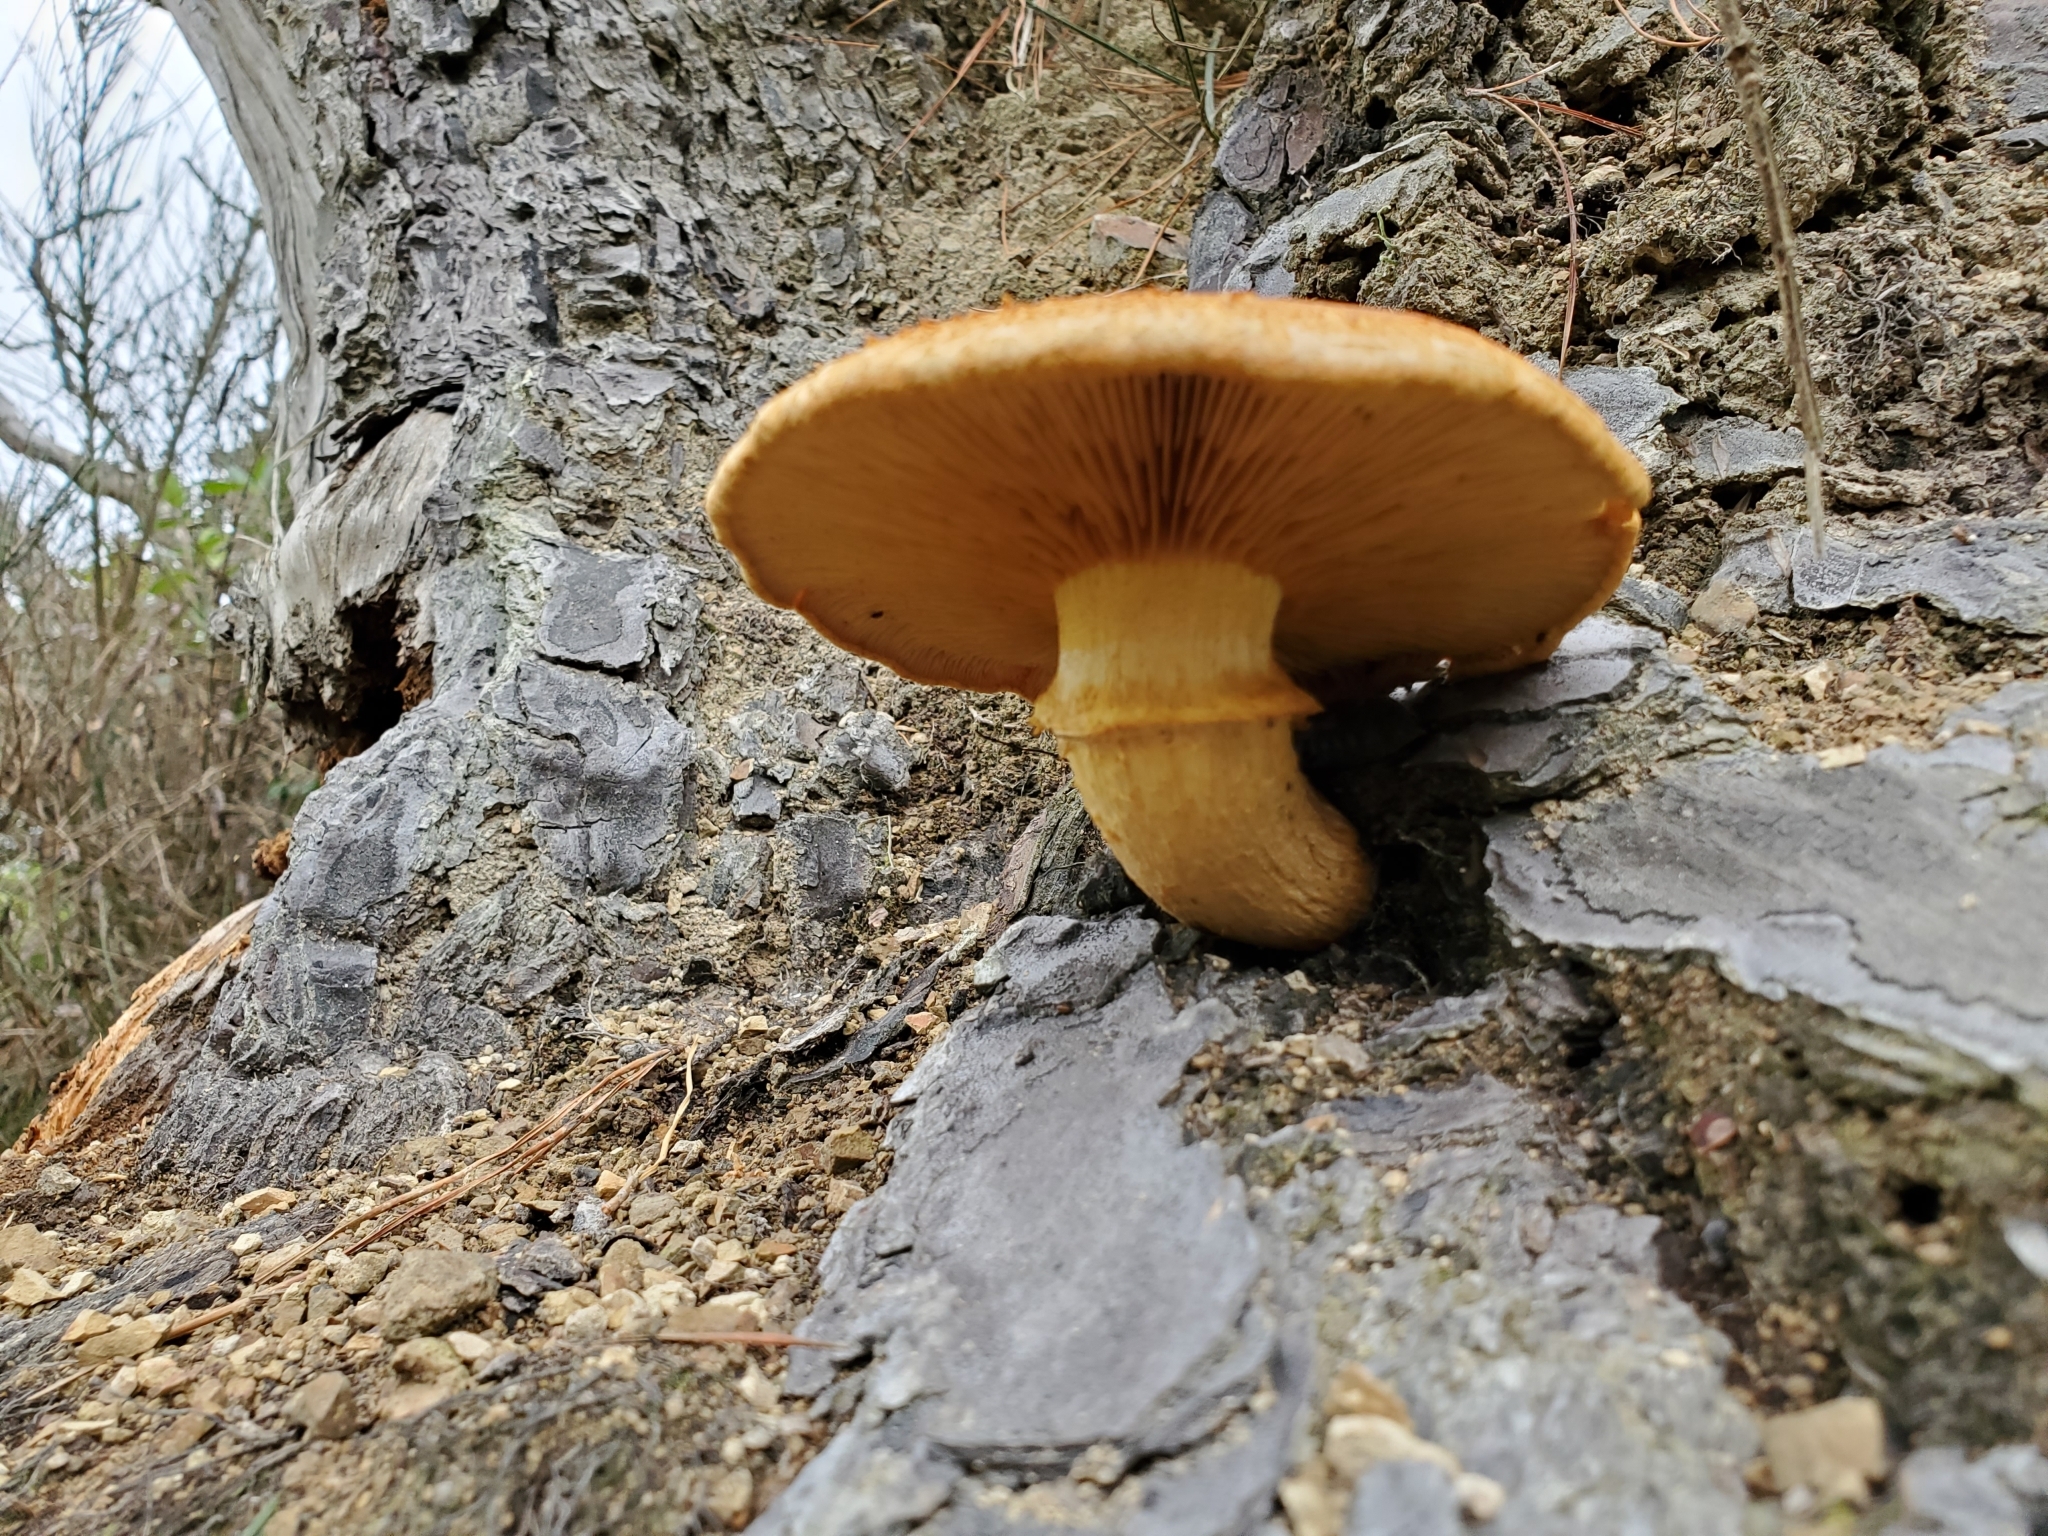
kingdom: Fungi
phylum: Basidiomycota
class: Agaricomycetes
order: Agaricales
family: Hymenogastraceae
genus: Gymnopilus
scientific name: Gymnopilus junonius
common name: Spectacular rustgill
